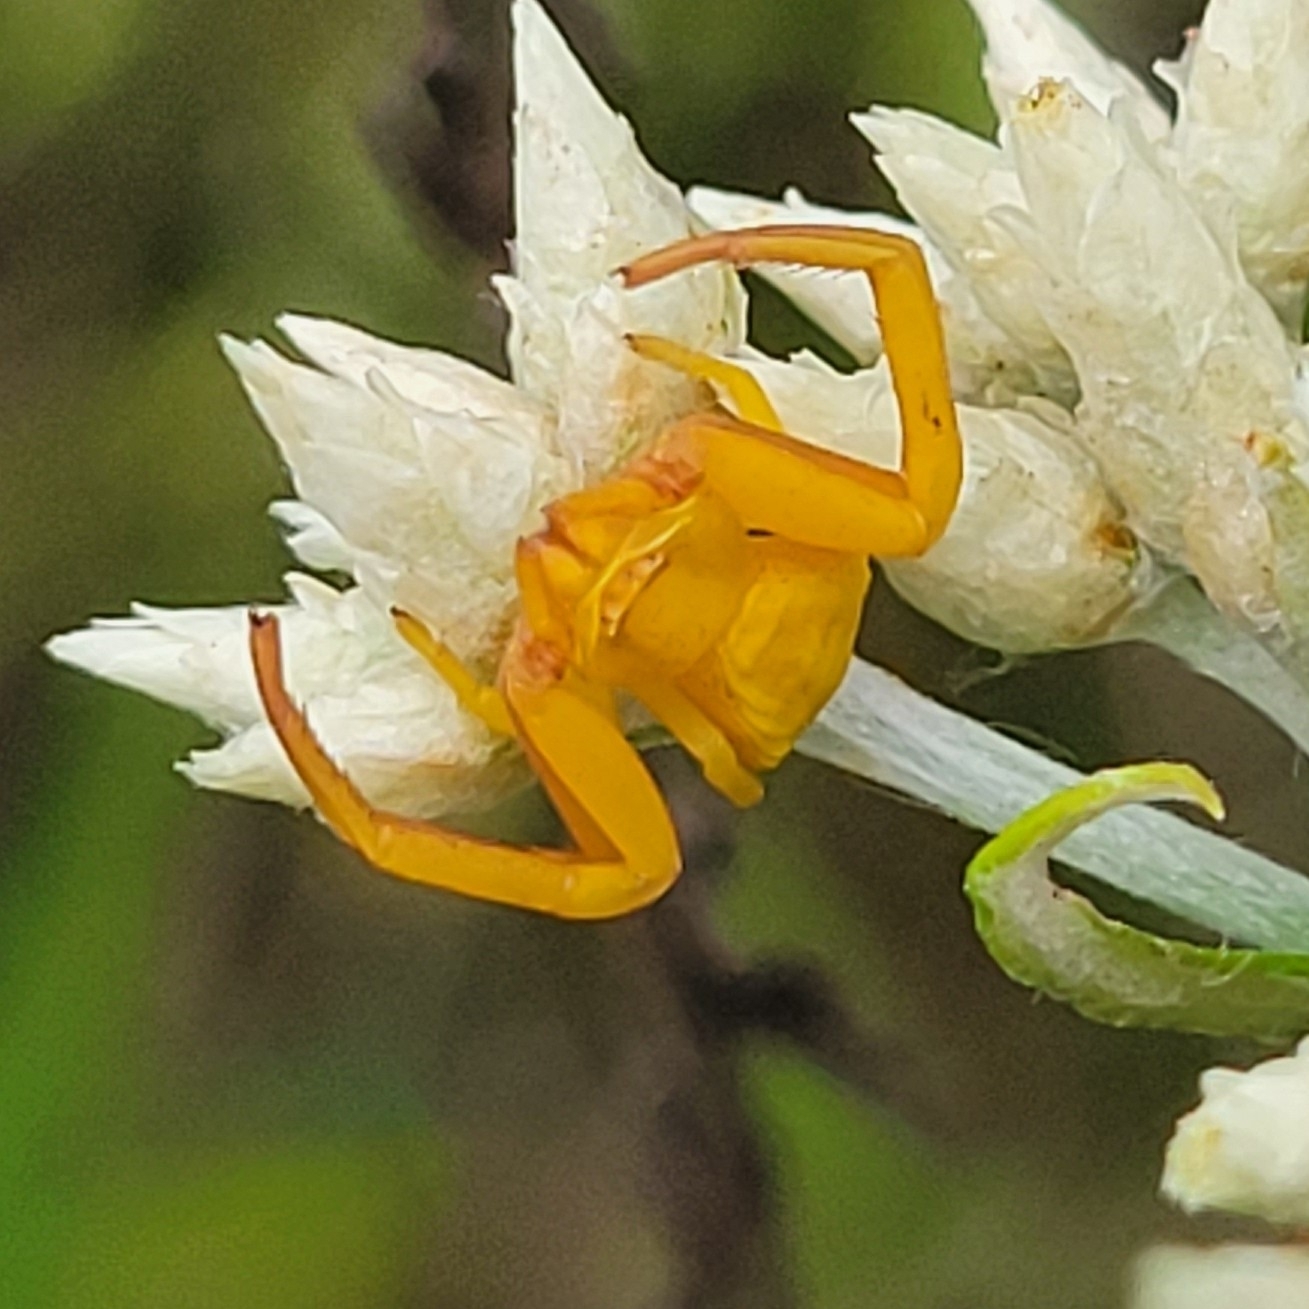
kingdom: Animalia
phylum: Arthropoda
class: Arachnida
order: Araneae
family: Thomisidae
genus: Misumenoides
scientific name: Misumenoides formosipes
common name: White-banded crab spider
